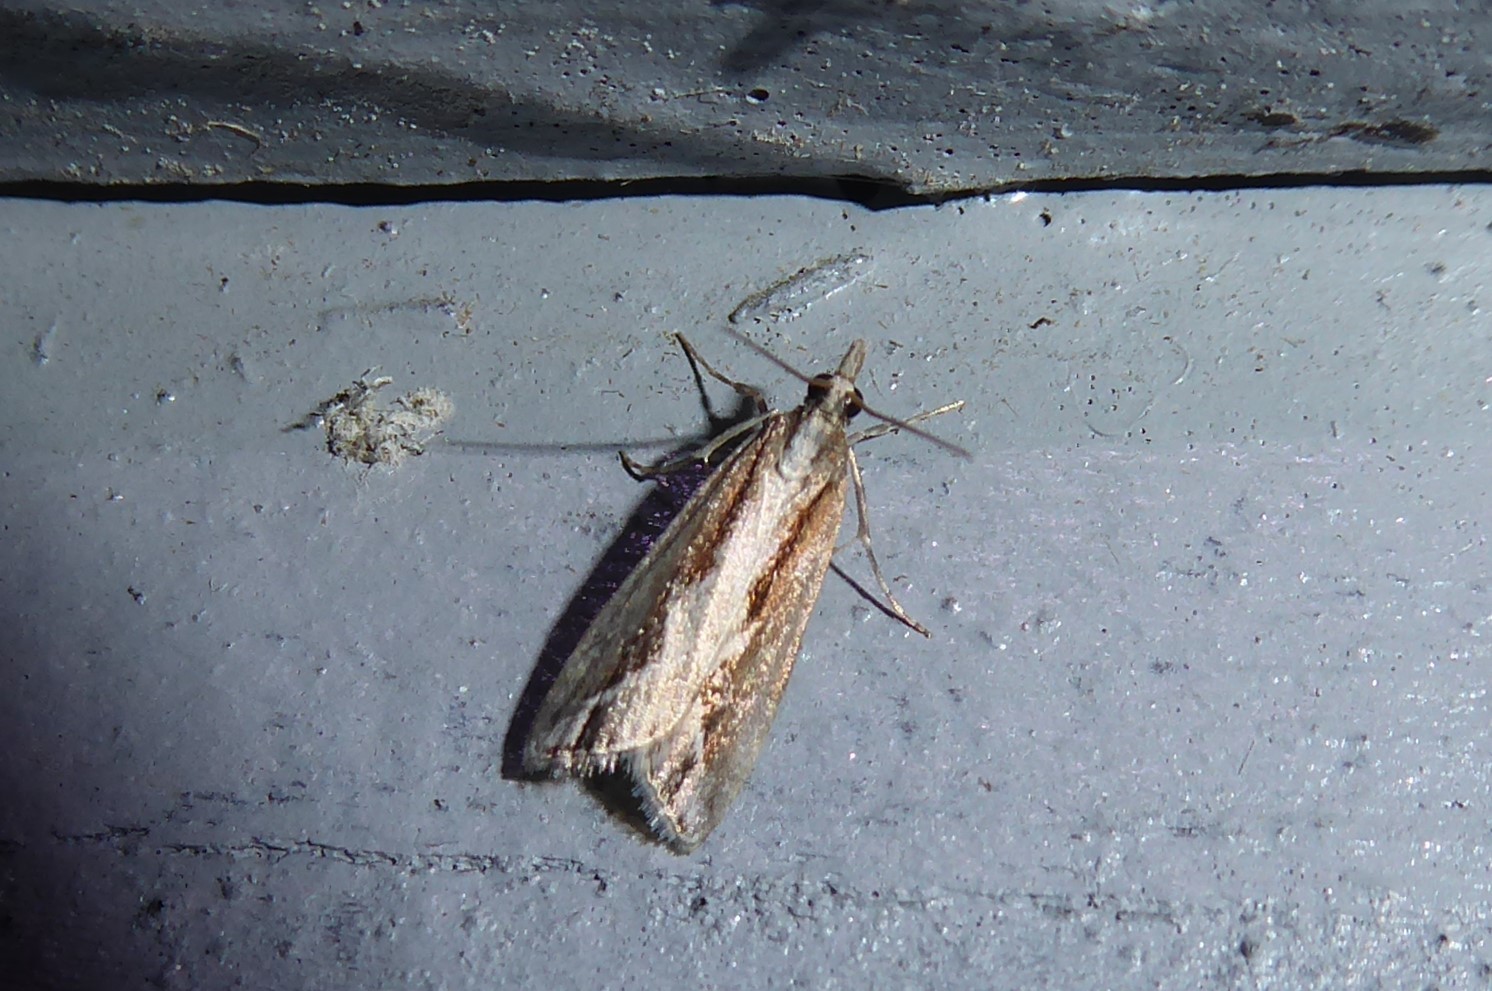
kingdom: Animalia
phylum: Arthropoda
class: Insecta
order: Lepidoptera
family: Crambidae
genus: Eudonia
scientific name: Eudonia steropaea
